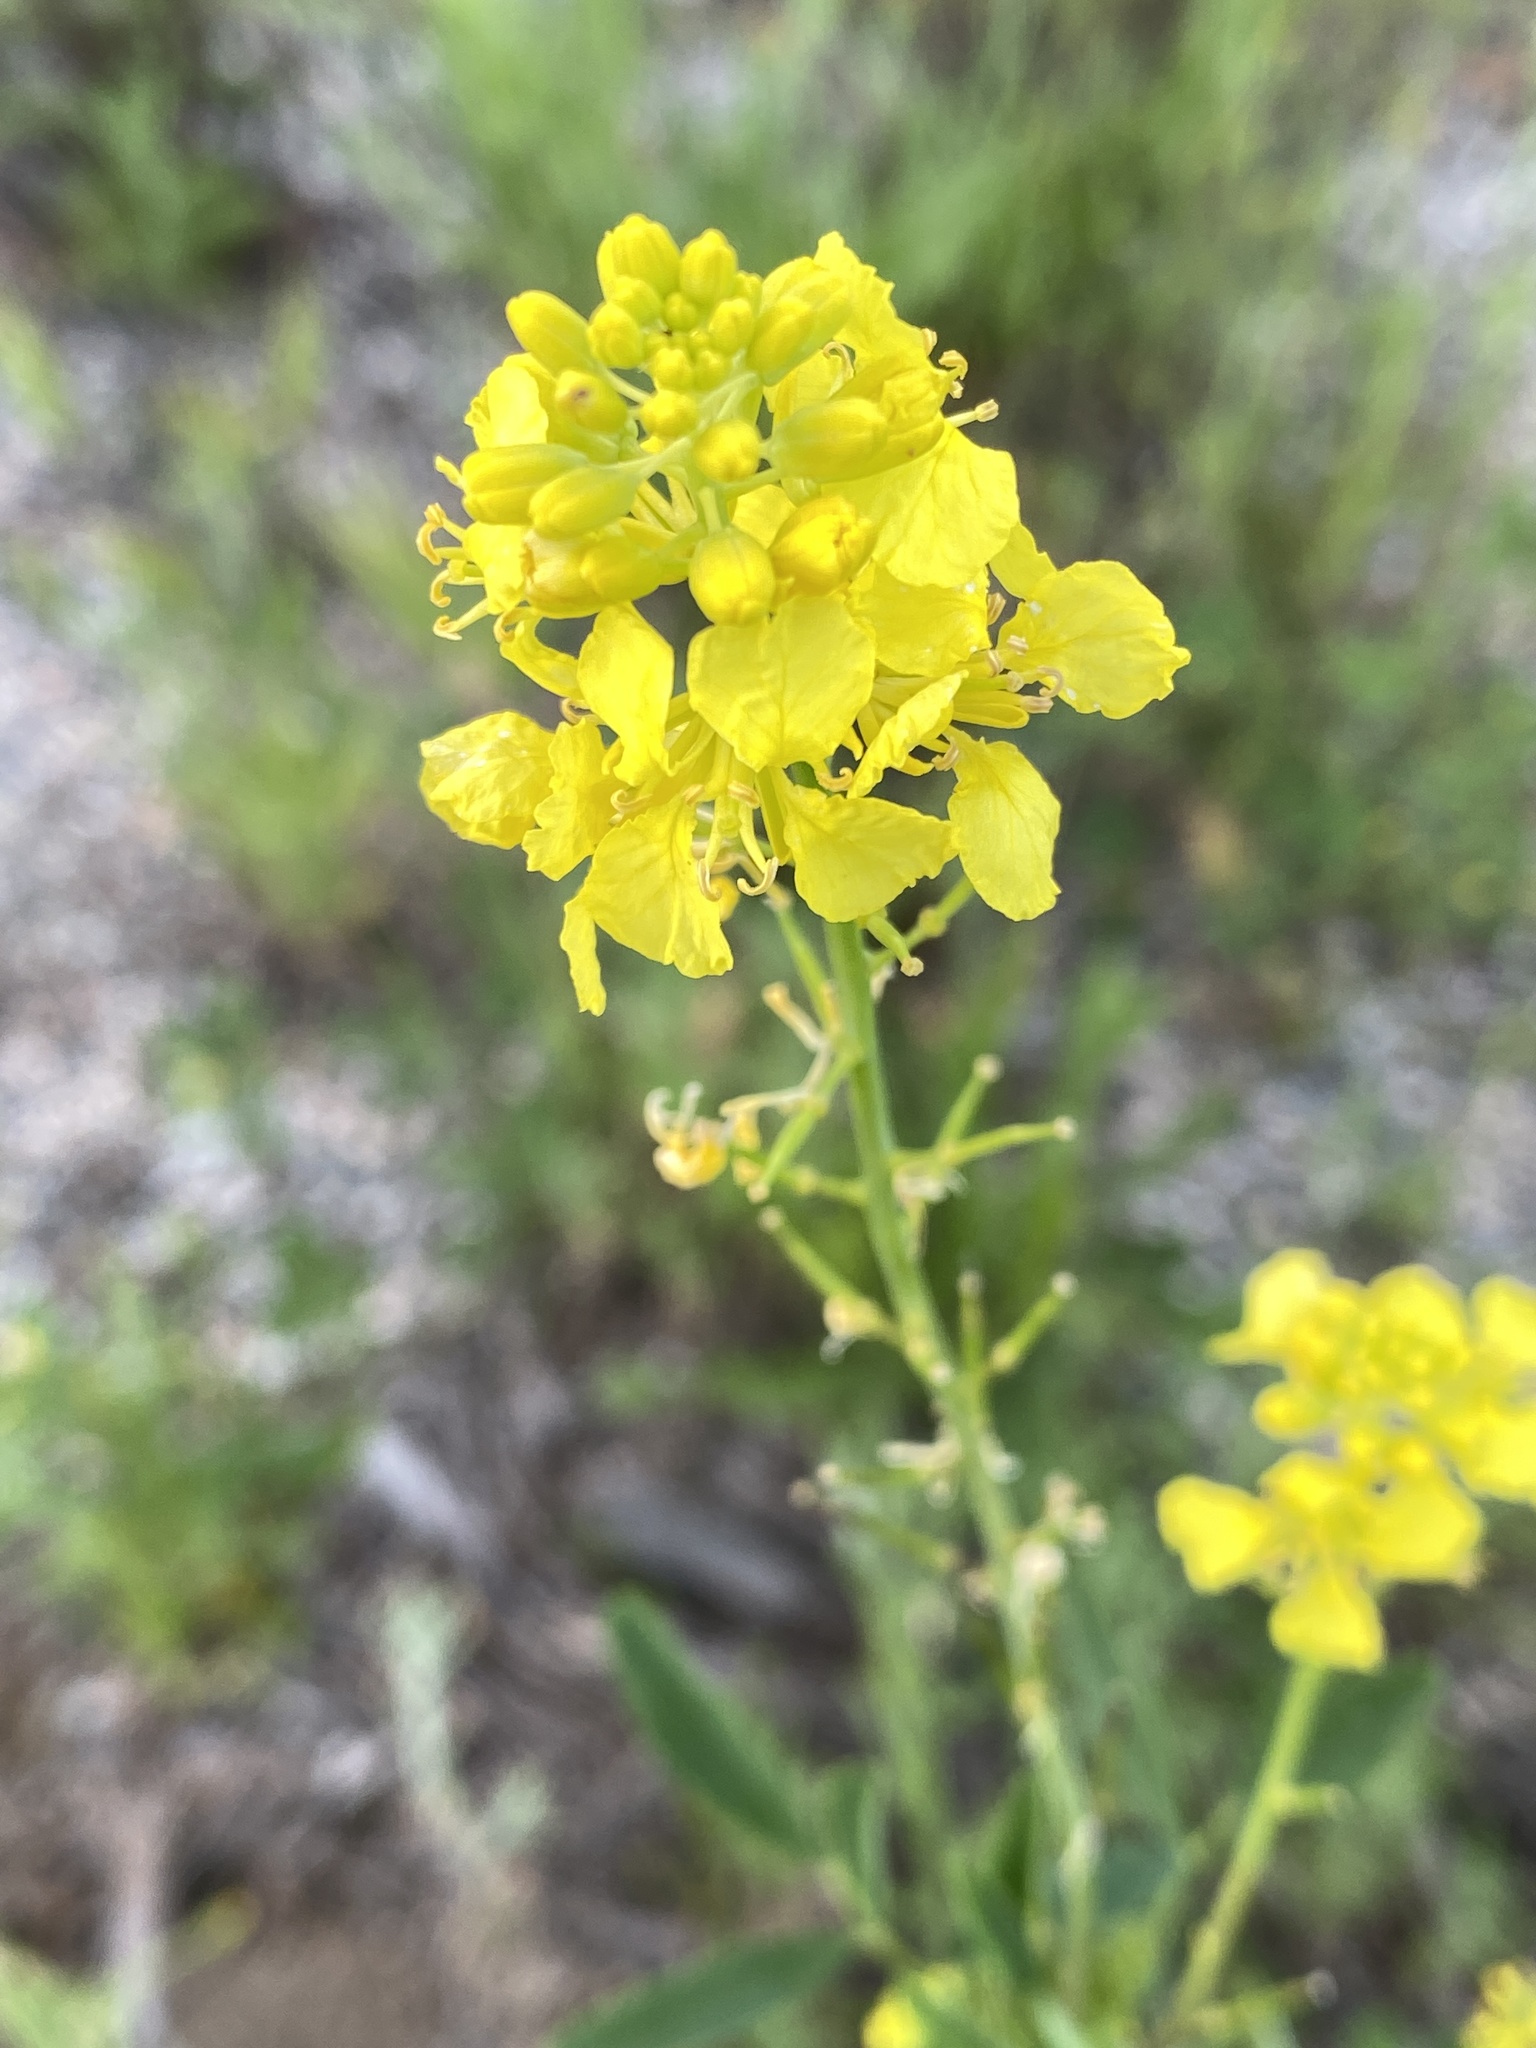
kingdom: Plantae
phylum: Tracheophyta
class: Magnoliopsida
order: Brassicales
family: Brassicaceae
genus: Brassica
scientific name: Brassica nigra
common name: Black mustard
